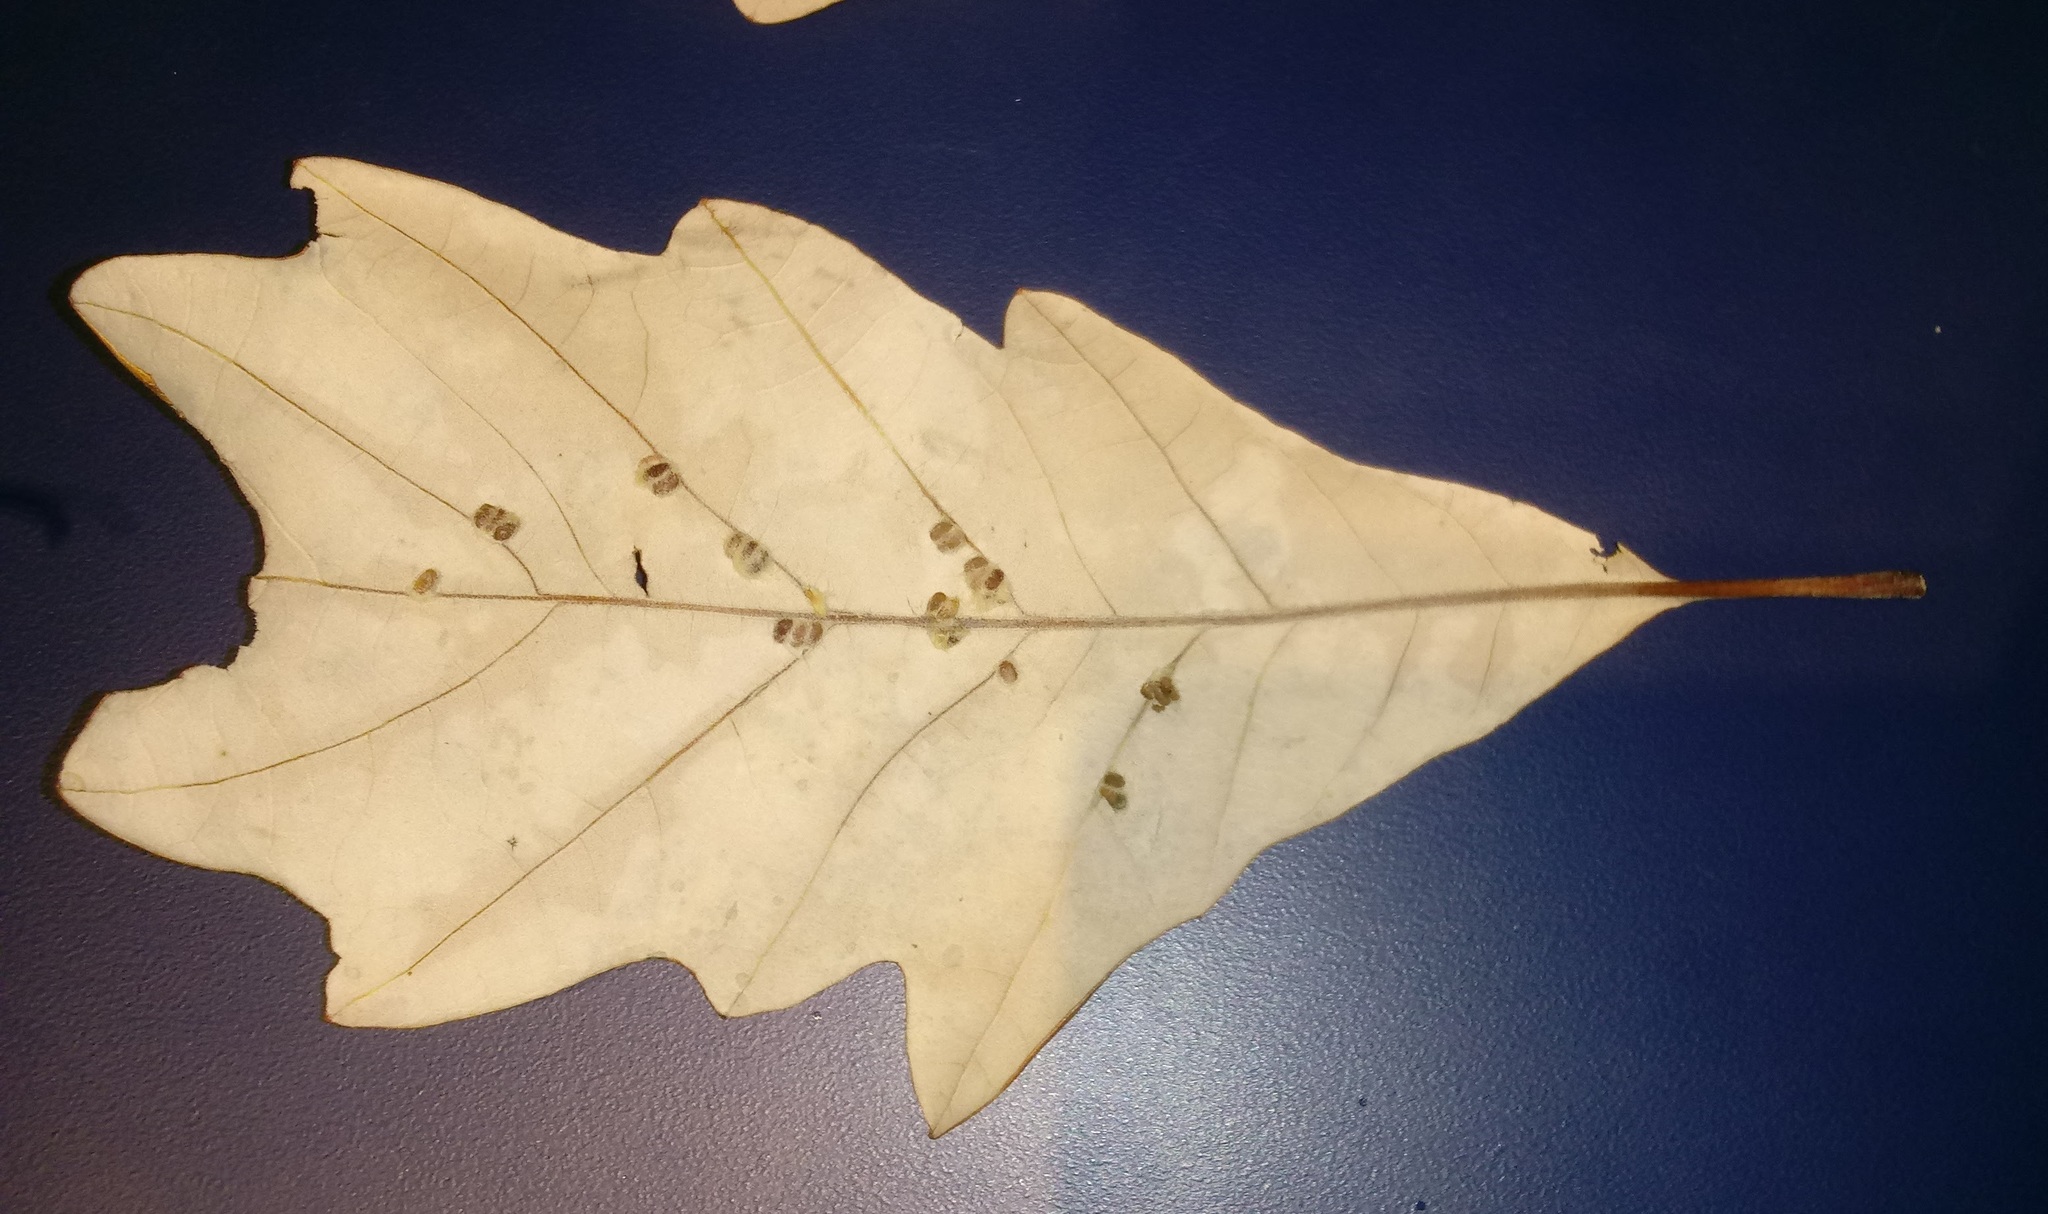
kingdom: Animalia
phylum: Arthropoda
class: Insecta
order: Hymenoptera
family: Cynipidae
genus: Andricus
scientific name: Andricus Druon ignotum
